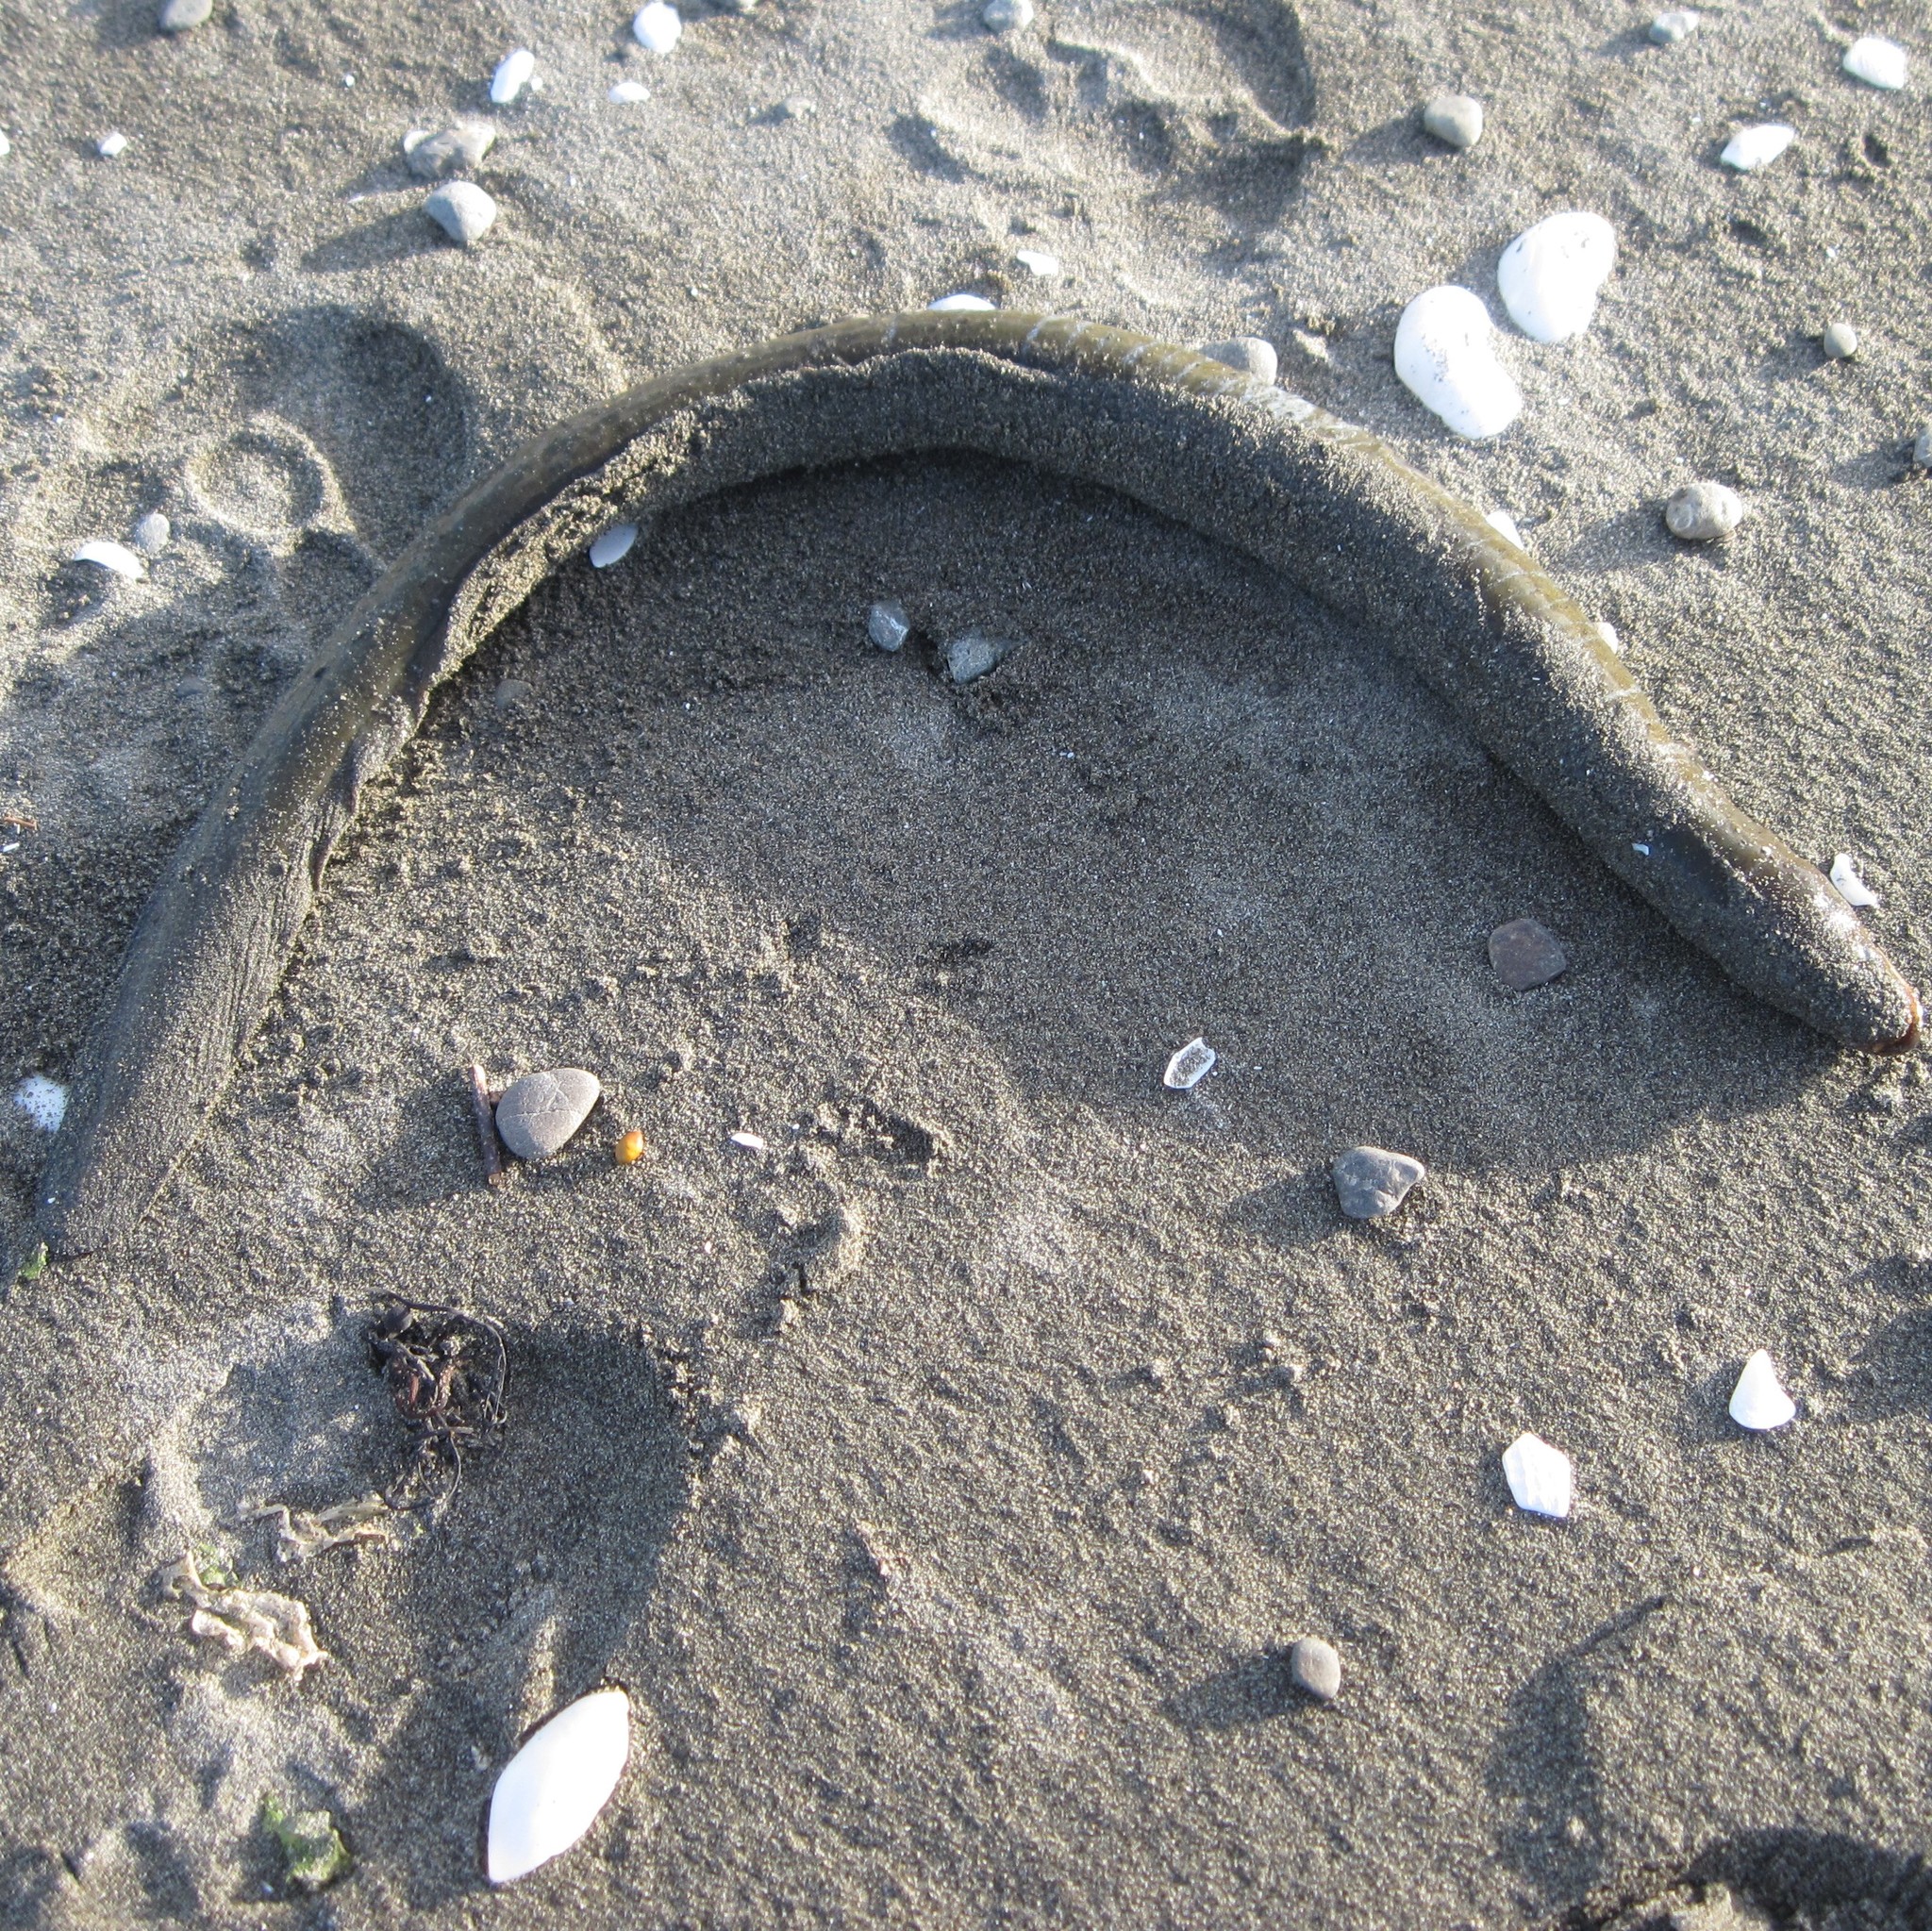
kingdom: Animalia
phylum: Chordata
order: Anguilliformes
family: Anguillidae
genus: Anguilla
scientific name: Anguilla australis
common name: Shortfin eel
